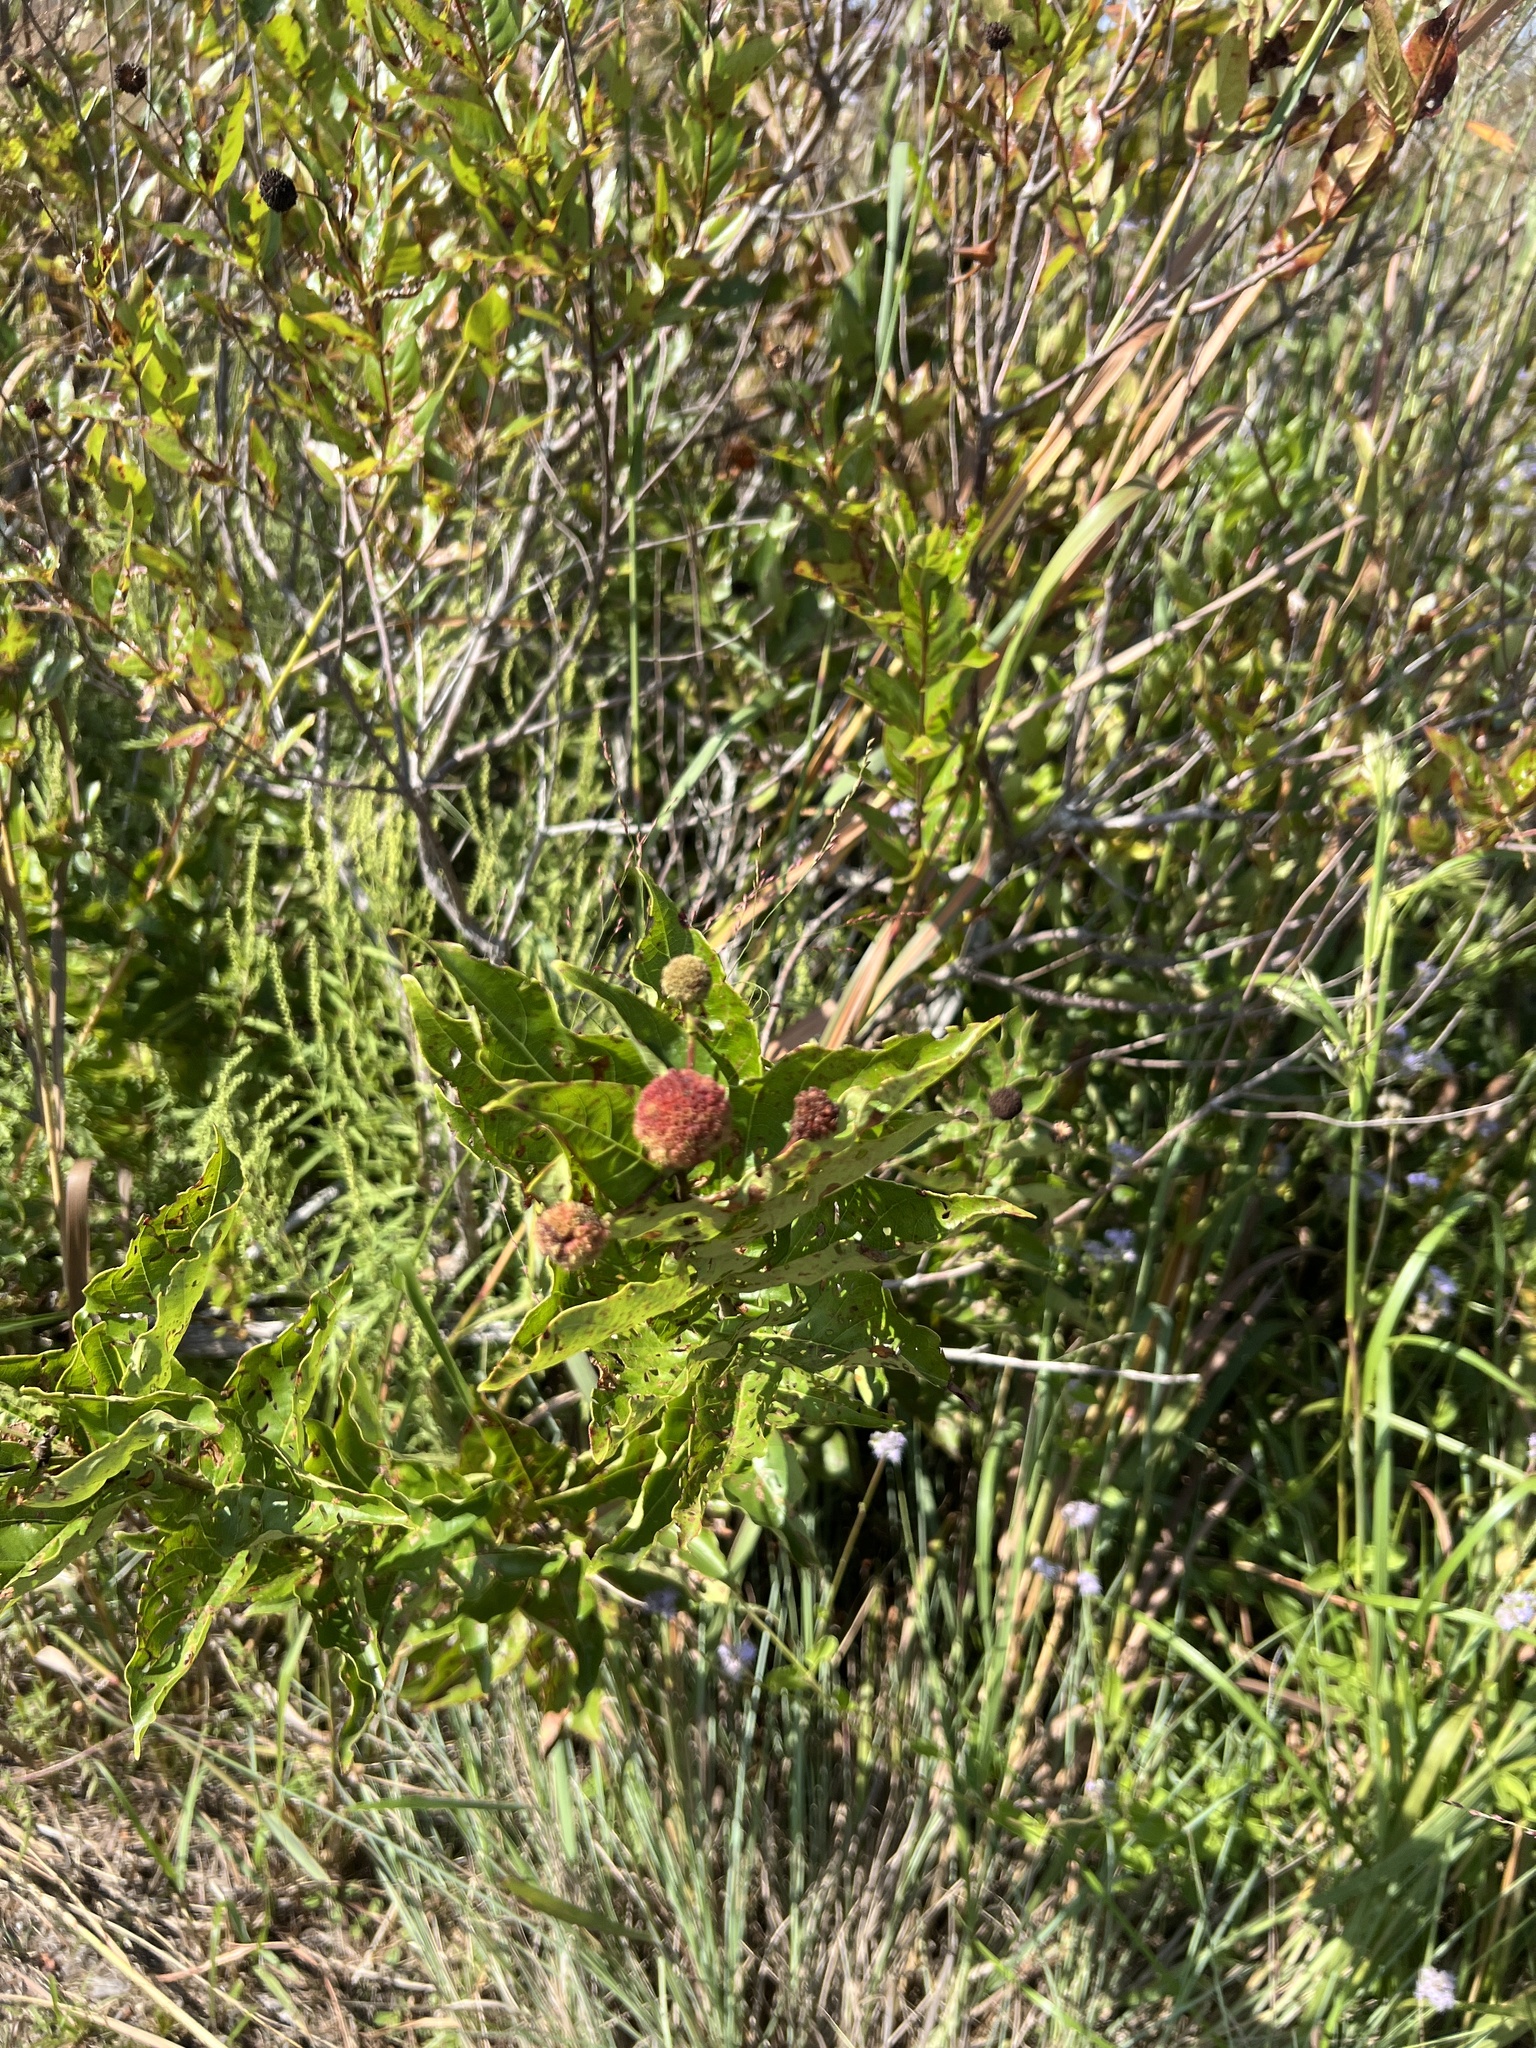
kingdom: Plantae
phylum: Tracheophyta
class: Magnoliopsida
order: Gentianales
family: Rubiaceae
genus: Cephalanthus
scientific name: Cephalanthus occidentalis
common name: Button-willow
